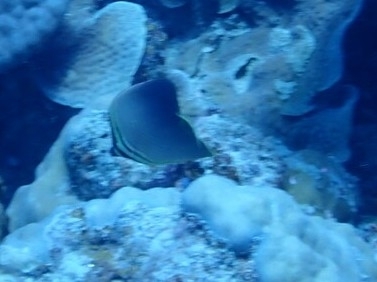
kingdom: Animalia
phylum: Chordata
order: Perciformes
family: Chaetodontidae
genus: Chaetodon
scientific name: Chaetodon baronessa
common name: Triangular butterflyfish
